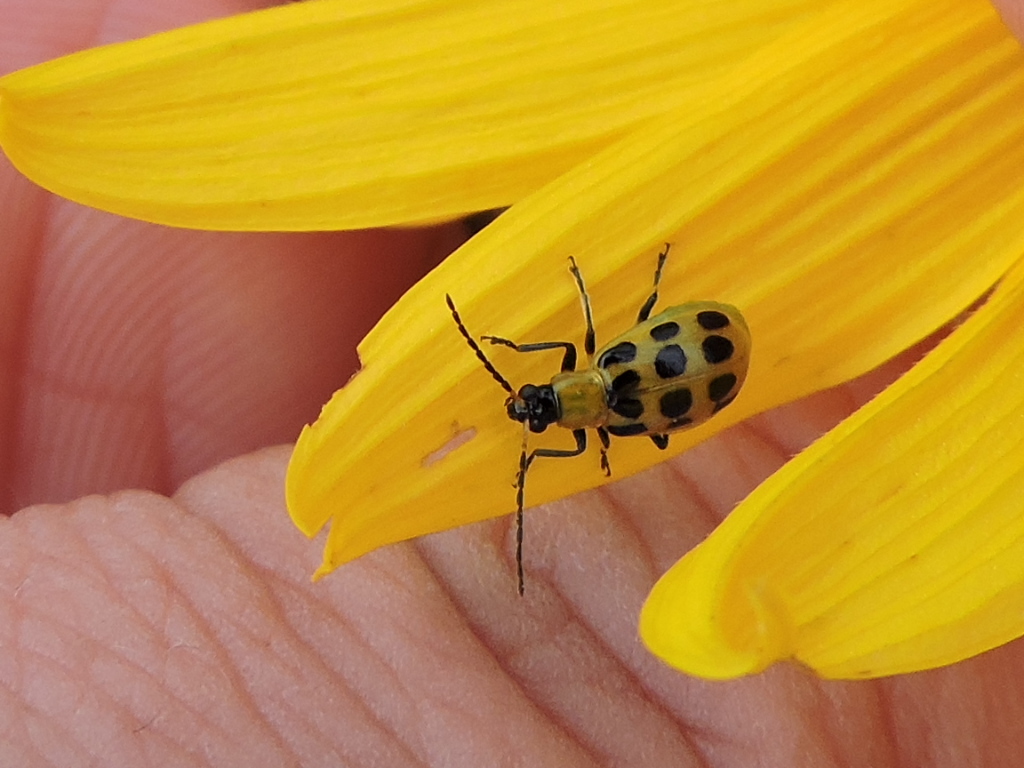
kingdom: Animalia
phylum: Arthropoda
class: Insecta
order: Coleoptera
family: Chrysomelidae
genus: Diabrotica
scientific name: Diabrotica undecimpunctata
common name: Spotted cucumber beetle
